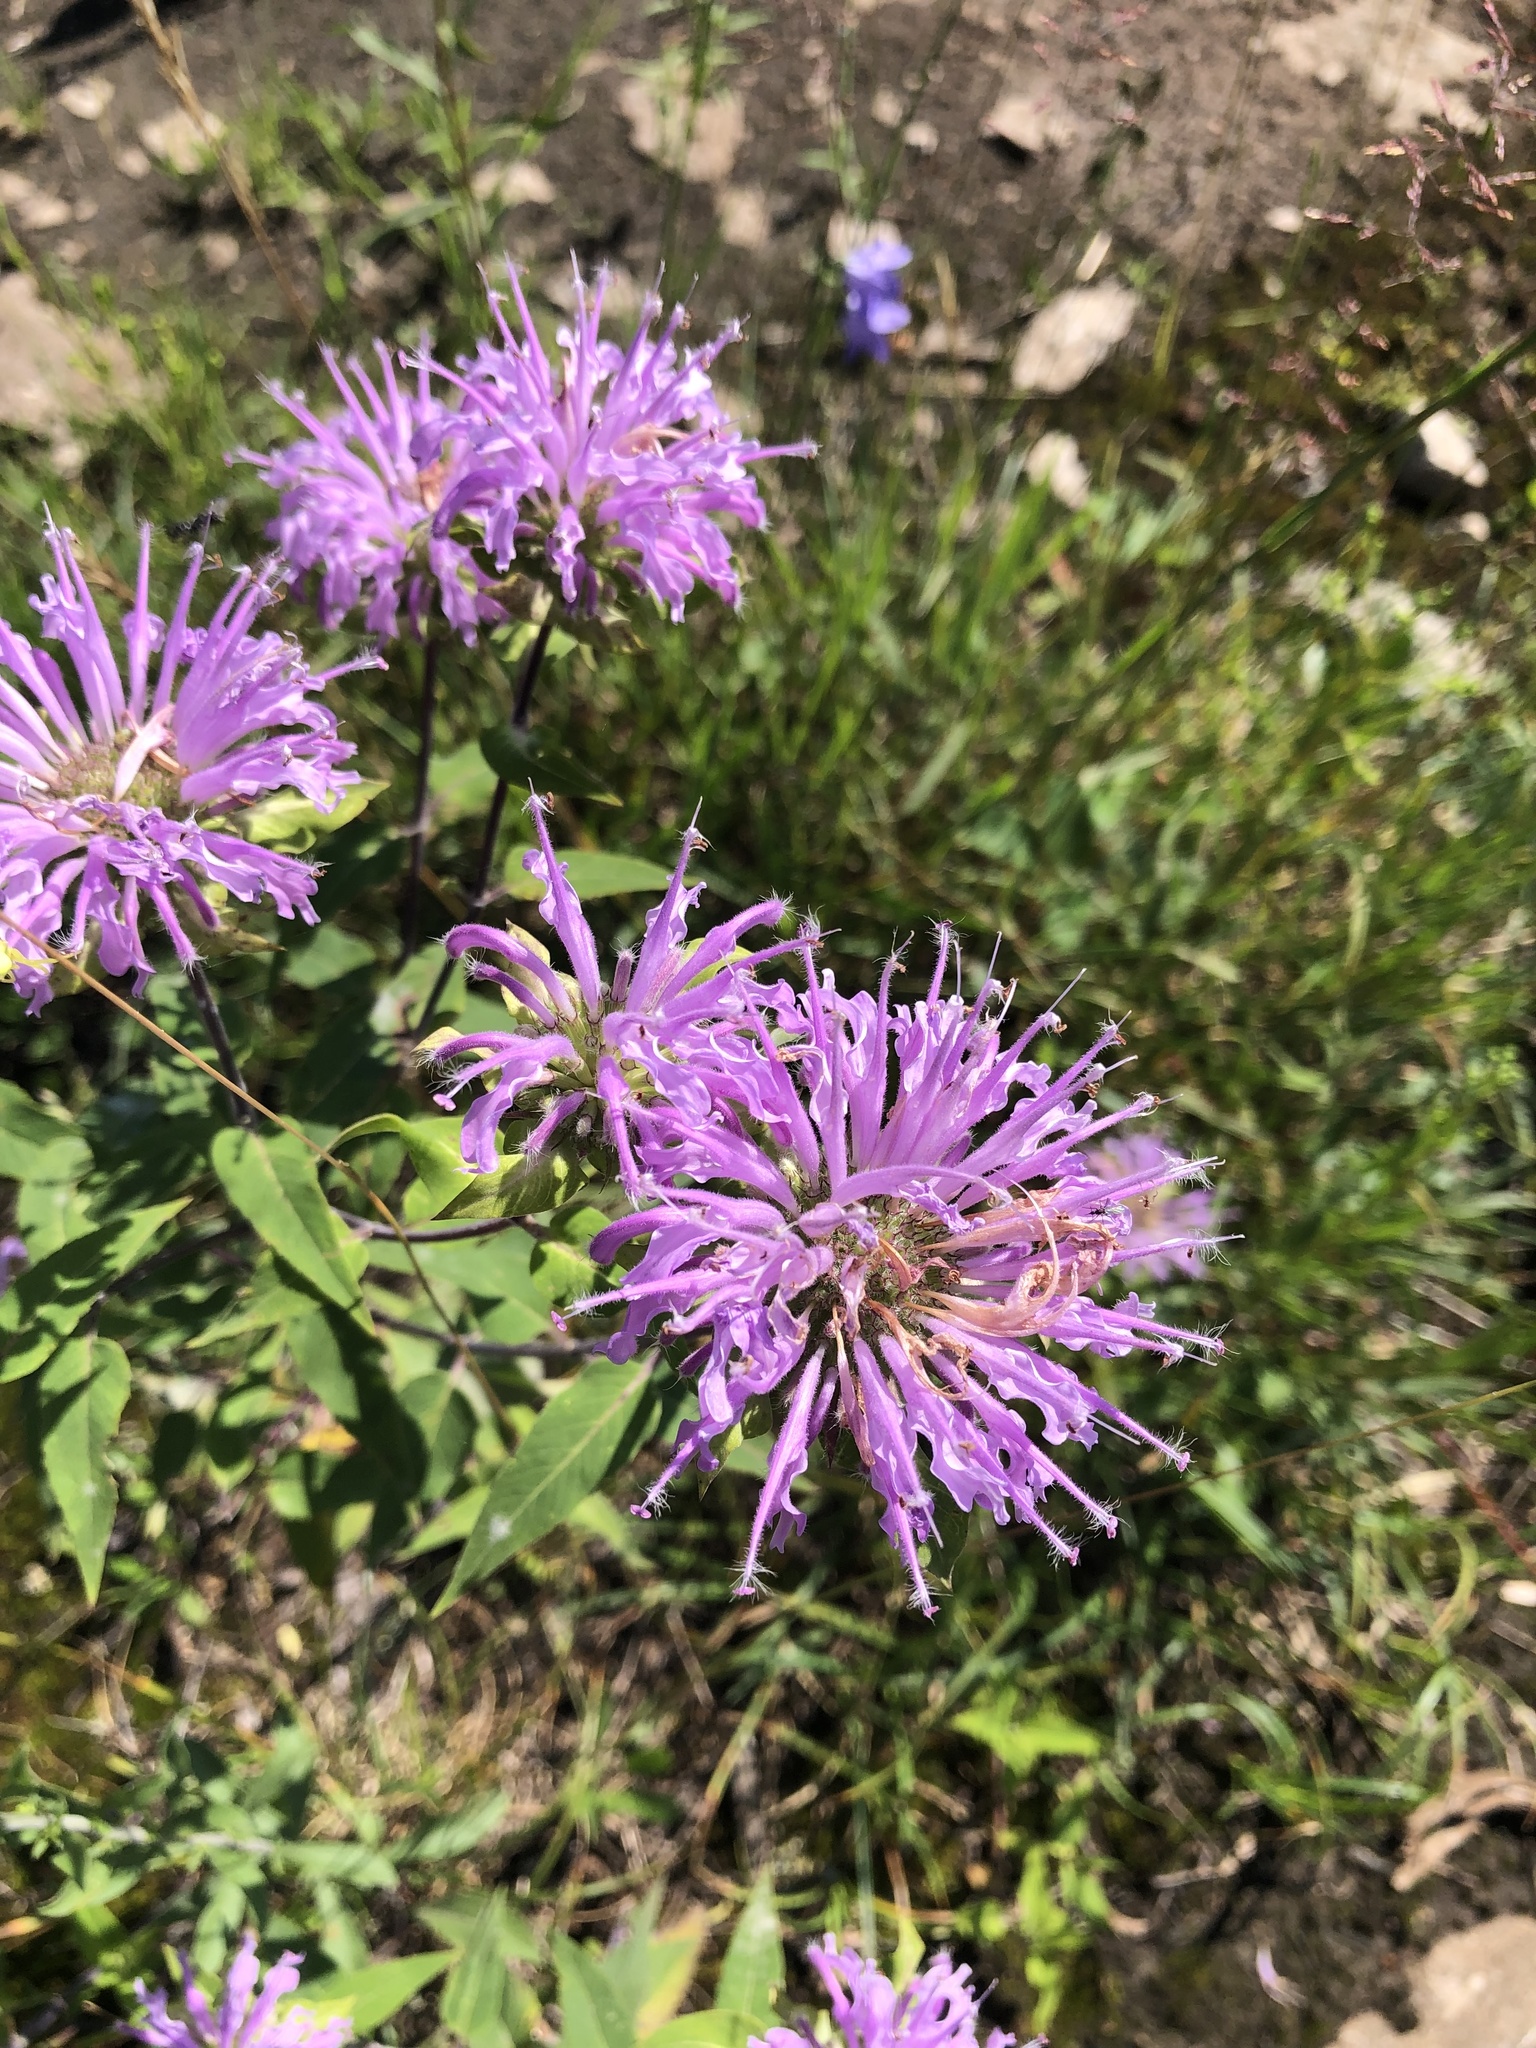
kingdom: Plantae
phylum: Tracheophyta
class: Magnoliopsida
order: Lamiales
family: Lamiaceae
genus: Monarda
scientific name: Monarda fistulosa
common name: Purple beebalm
